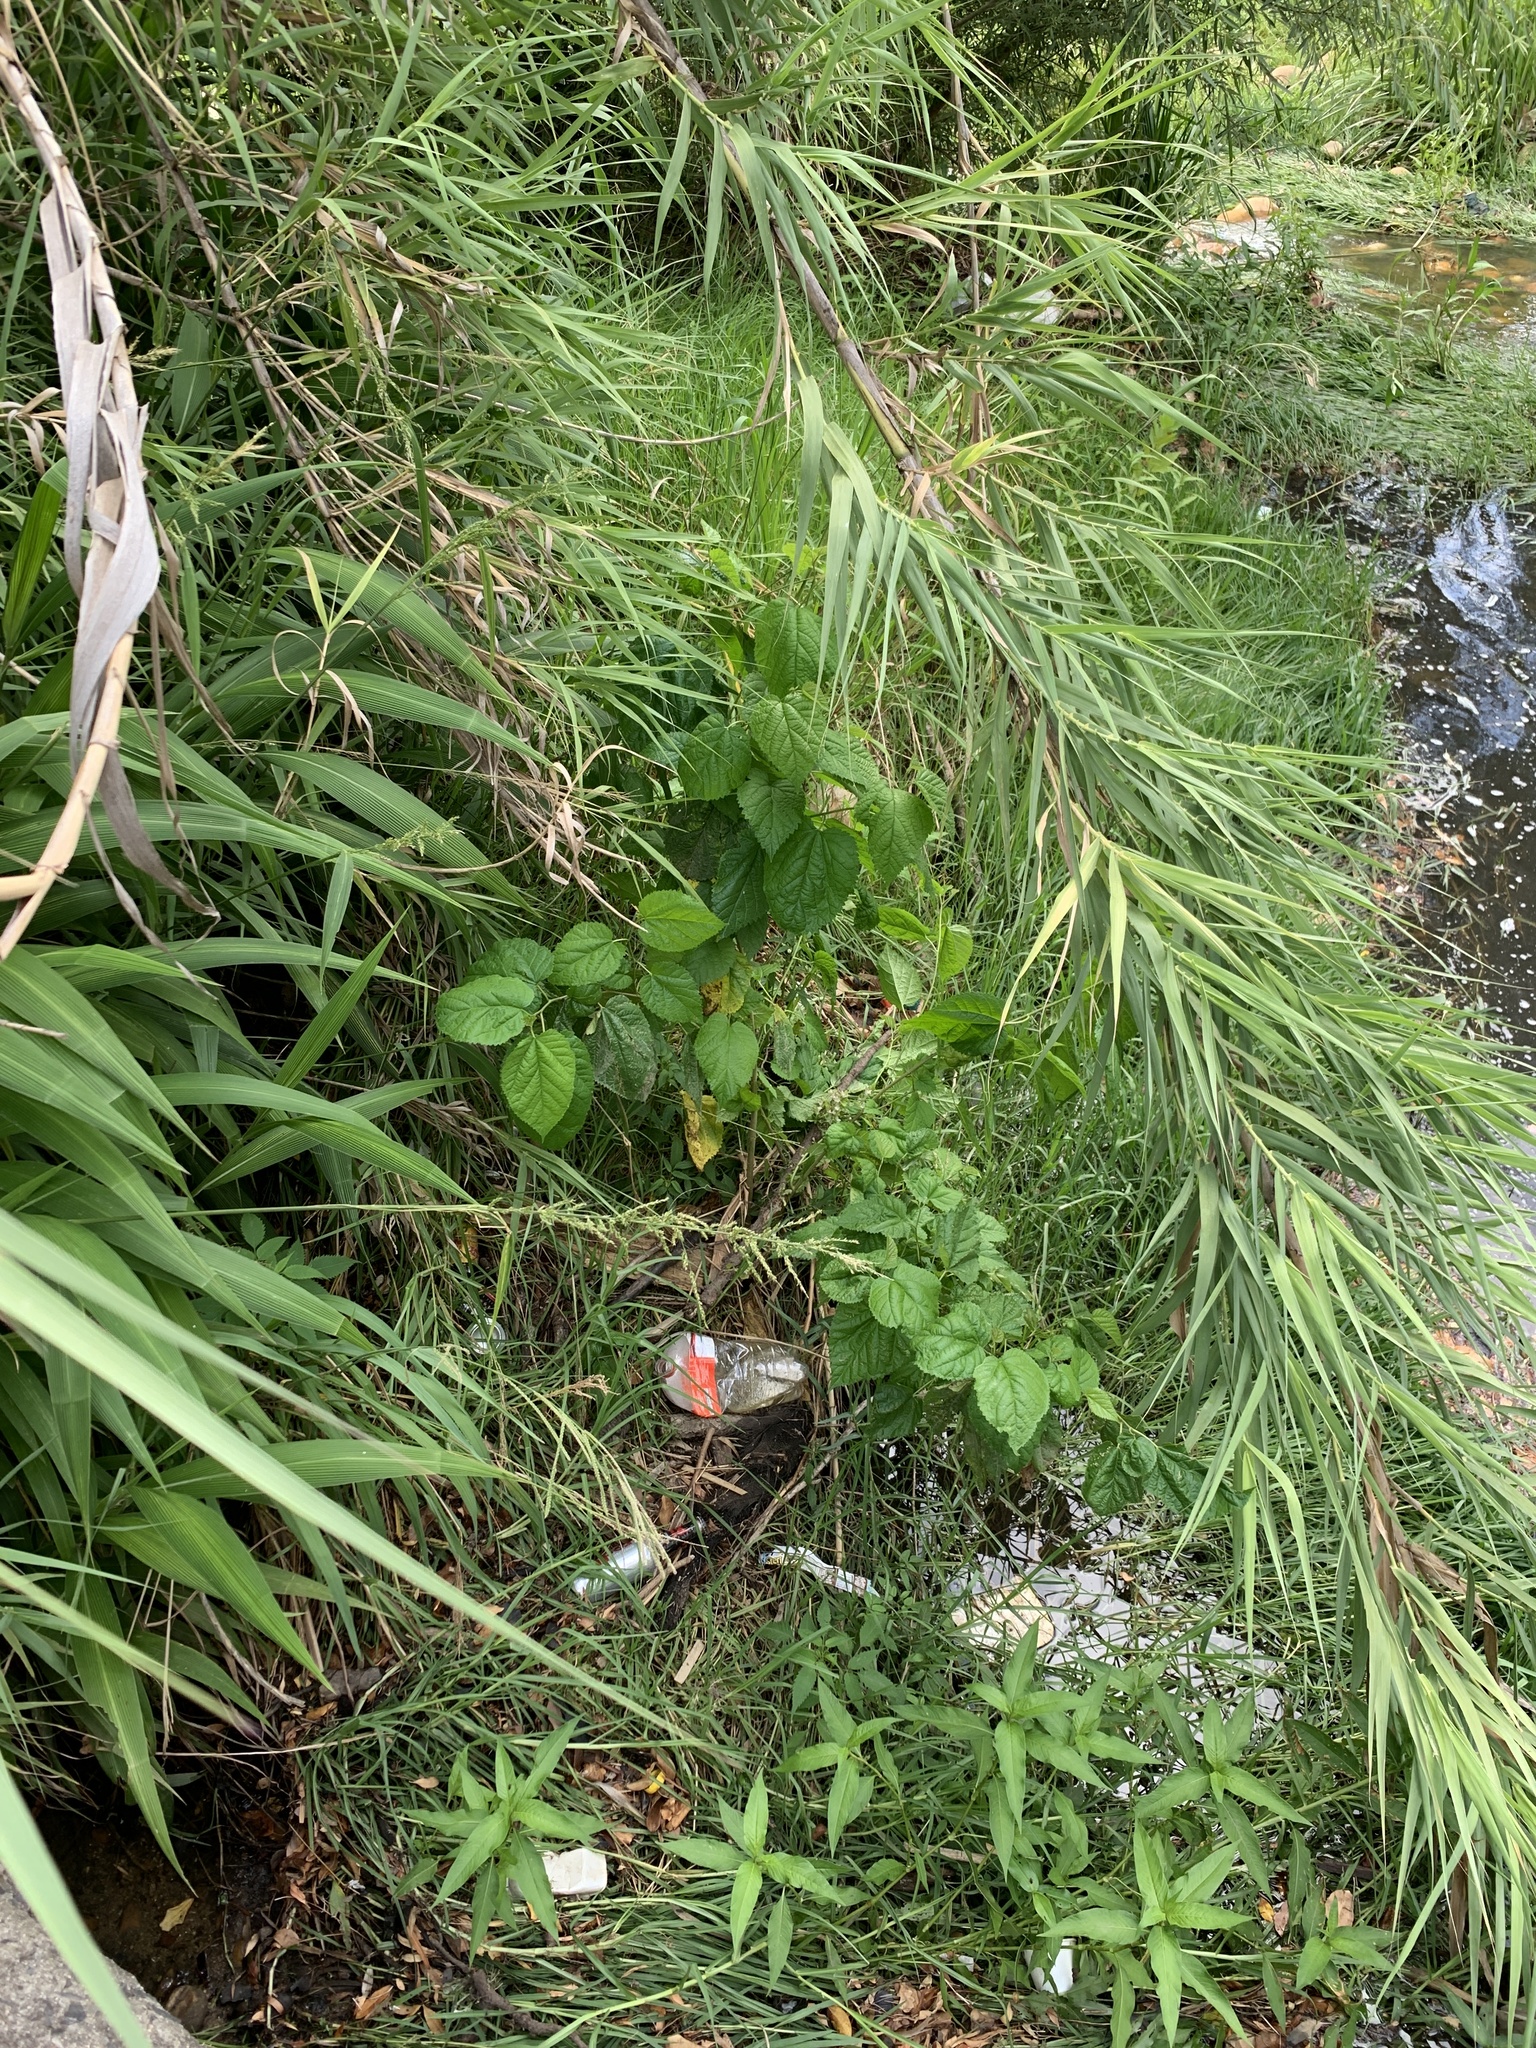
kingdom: Plantae
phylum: Tracheophyta
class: Magnoliopsida
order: Rosales
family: Moraceae
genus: Morus
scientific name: Morus alba
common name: White mulberry
